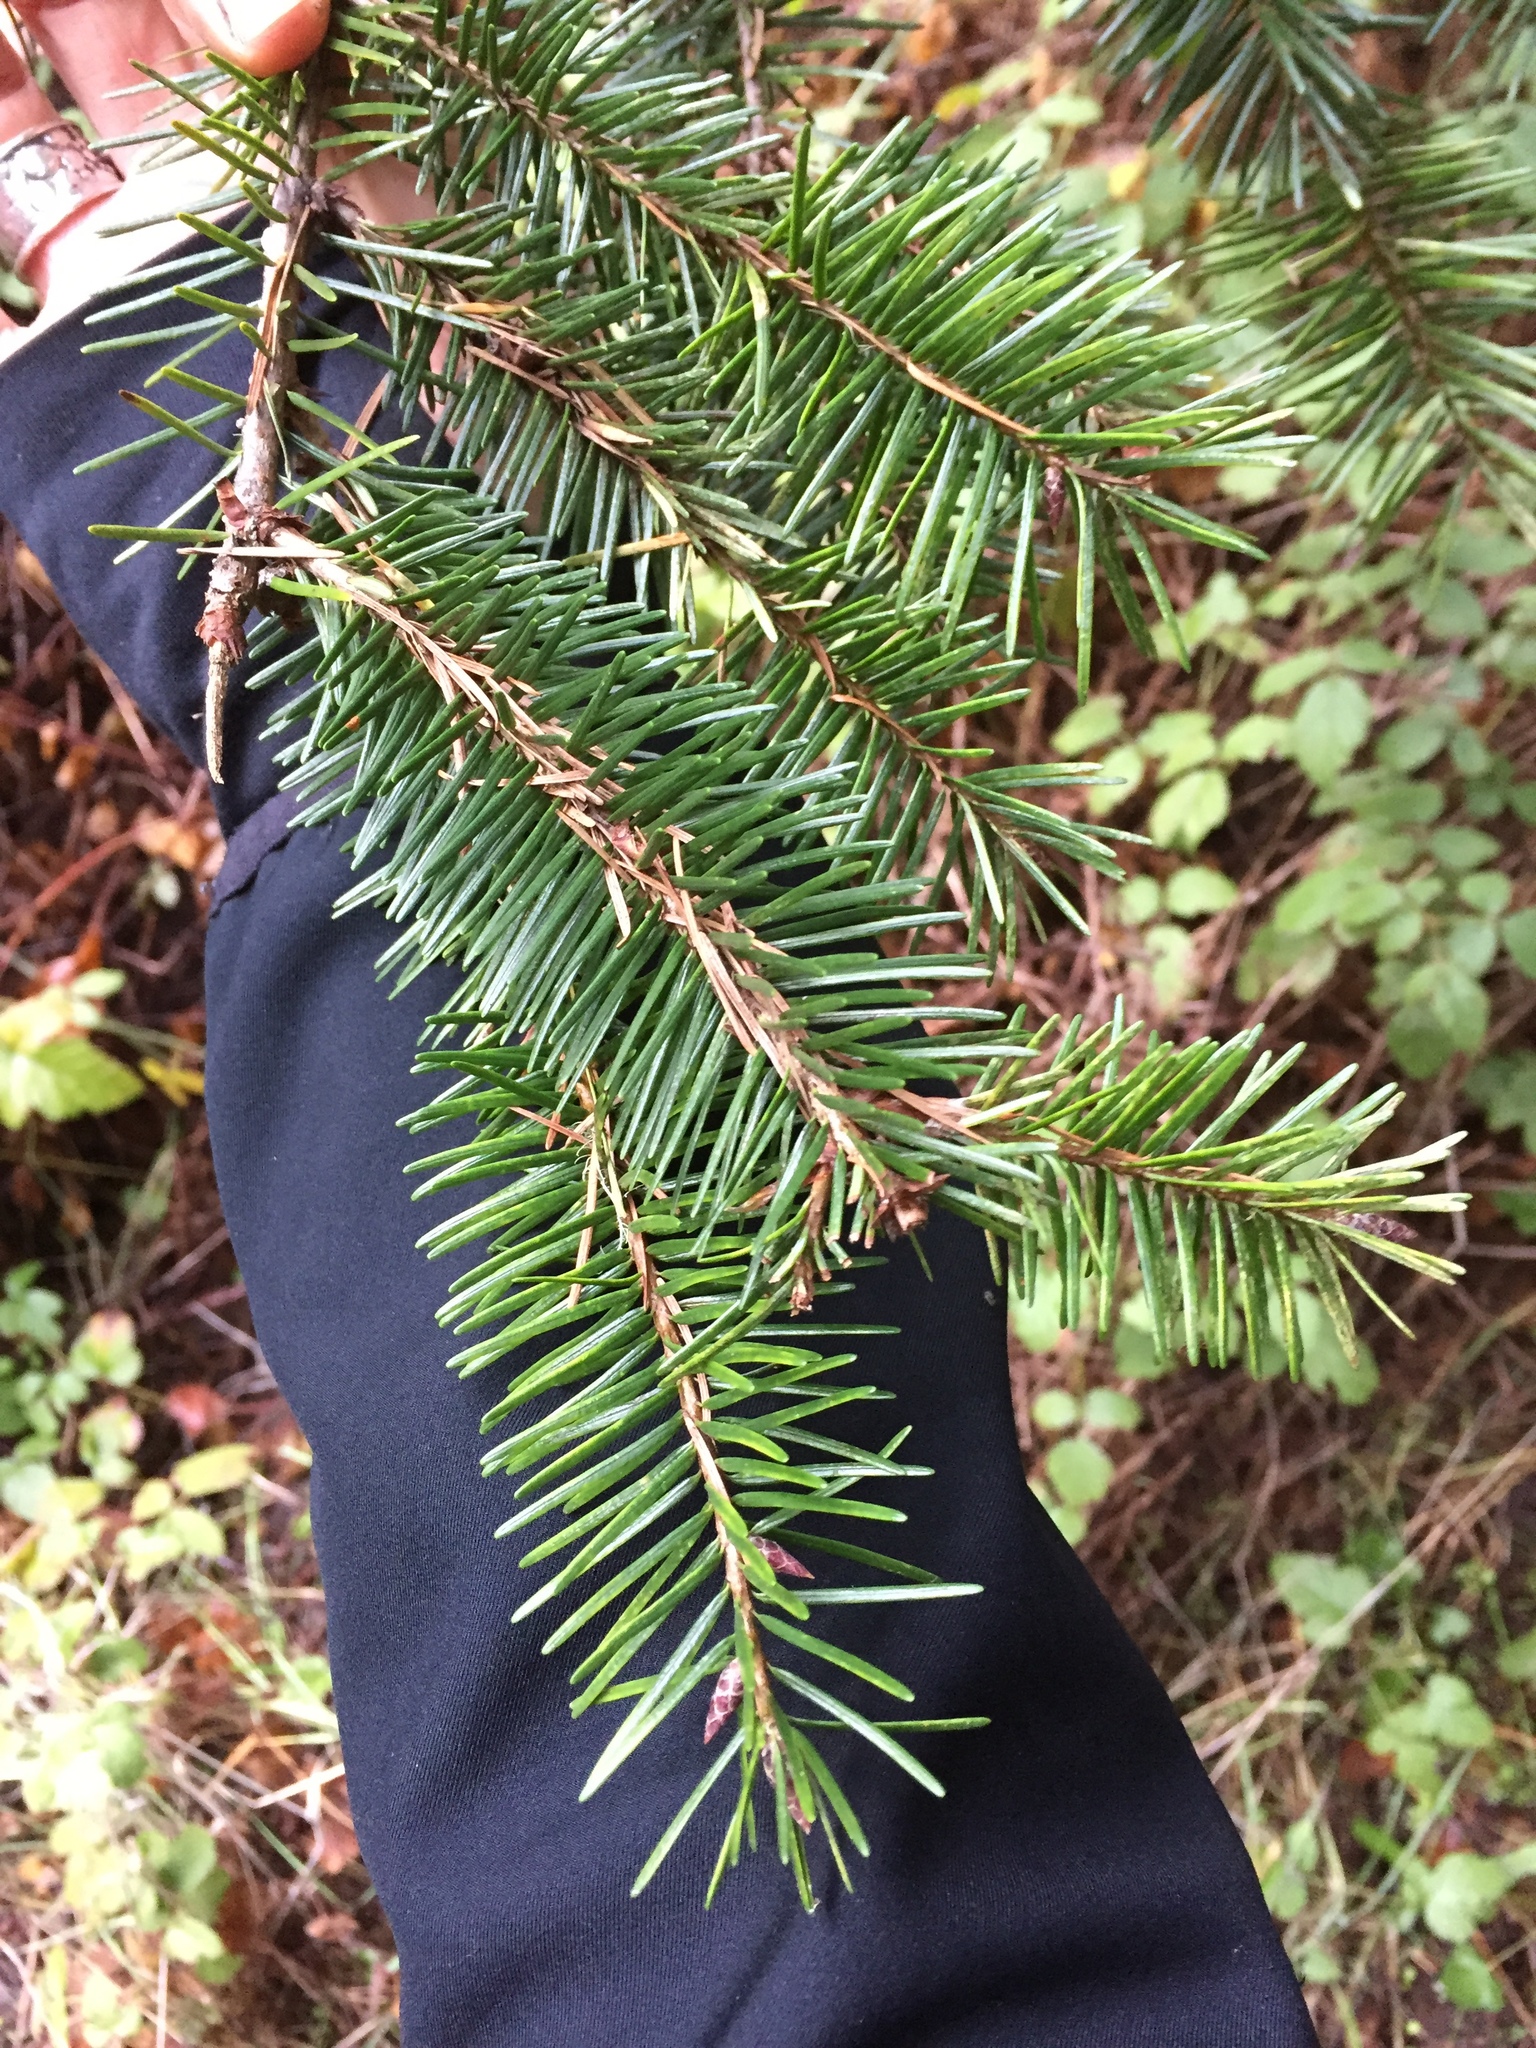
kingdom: Plantae
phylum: Tracheophyta
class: Pinopsida
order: Pinales
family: Pinaceae
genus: Pseudotsuga
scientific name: Pseudotsuga menziesii
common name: Douglas fir
